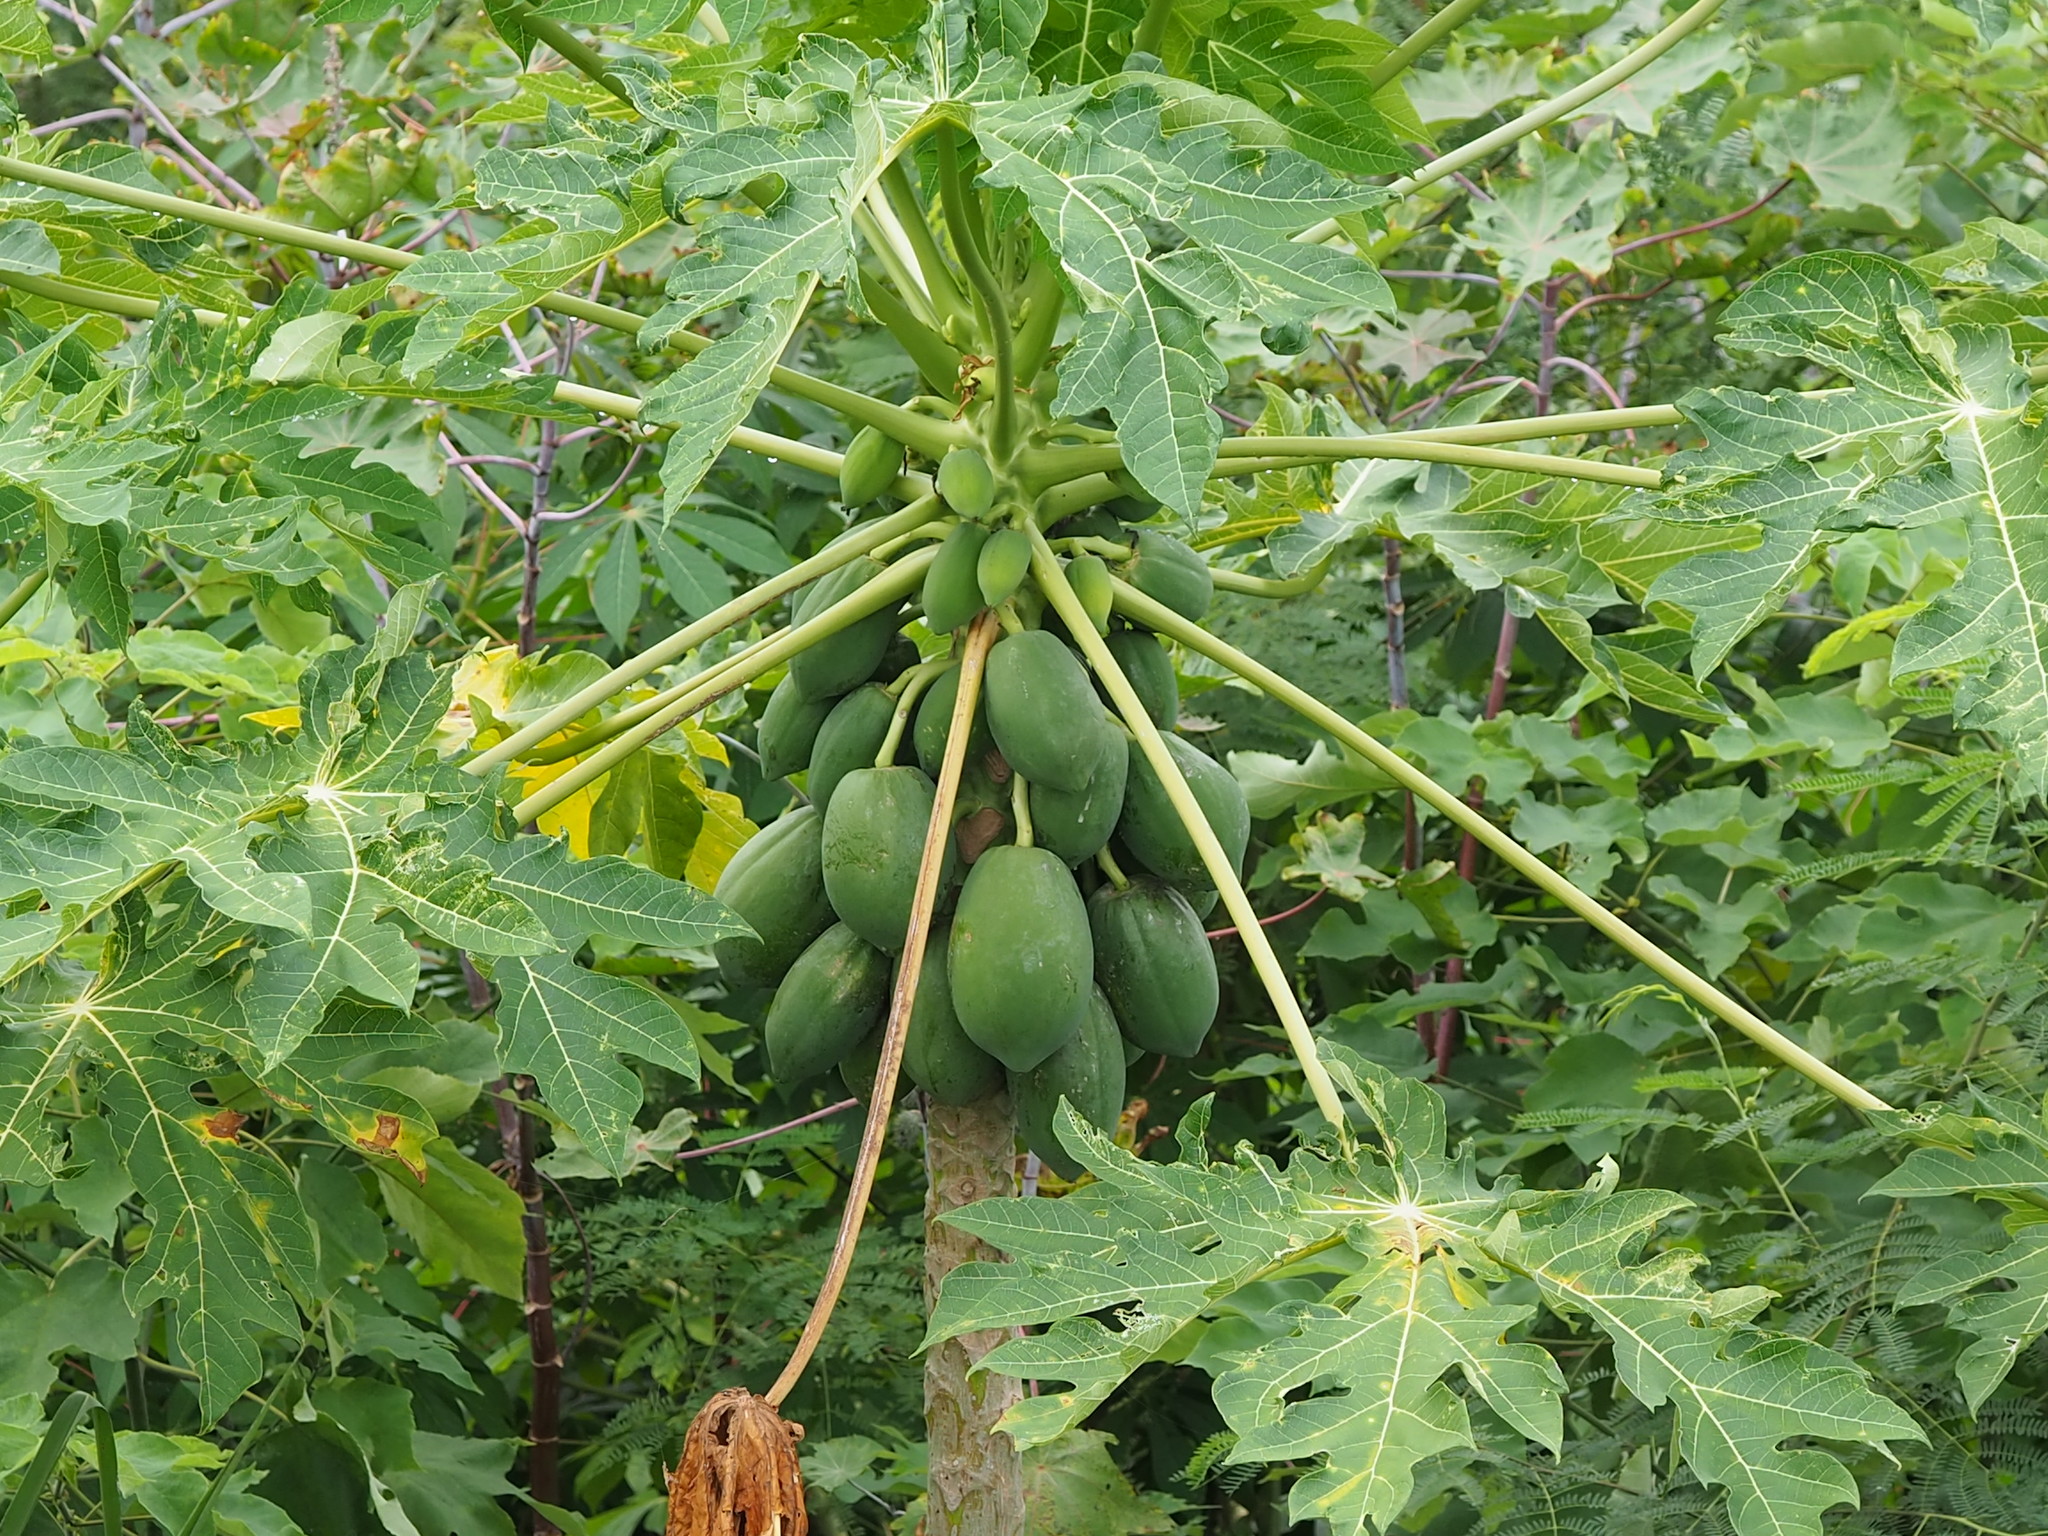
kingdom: Plantae
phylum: Tracheophyta
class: Magnoliopsida
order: Brassicales
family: Caricaceae
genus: Carica
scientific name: Carica papaya
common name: Papaya
